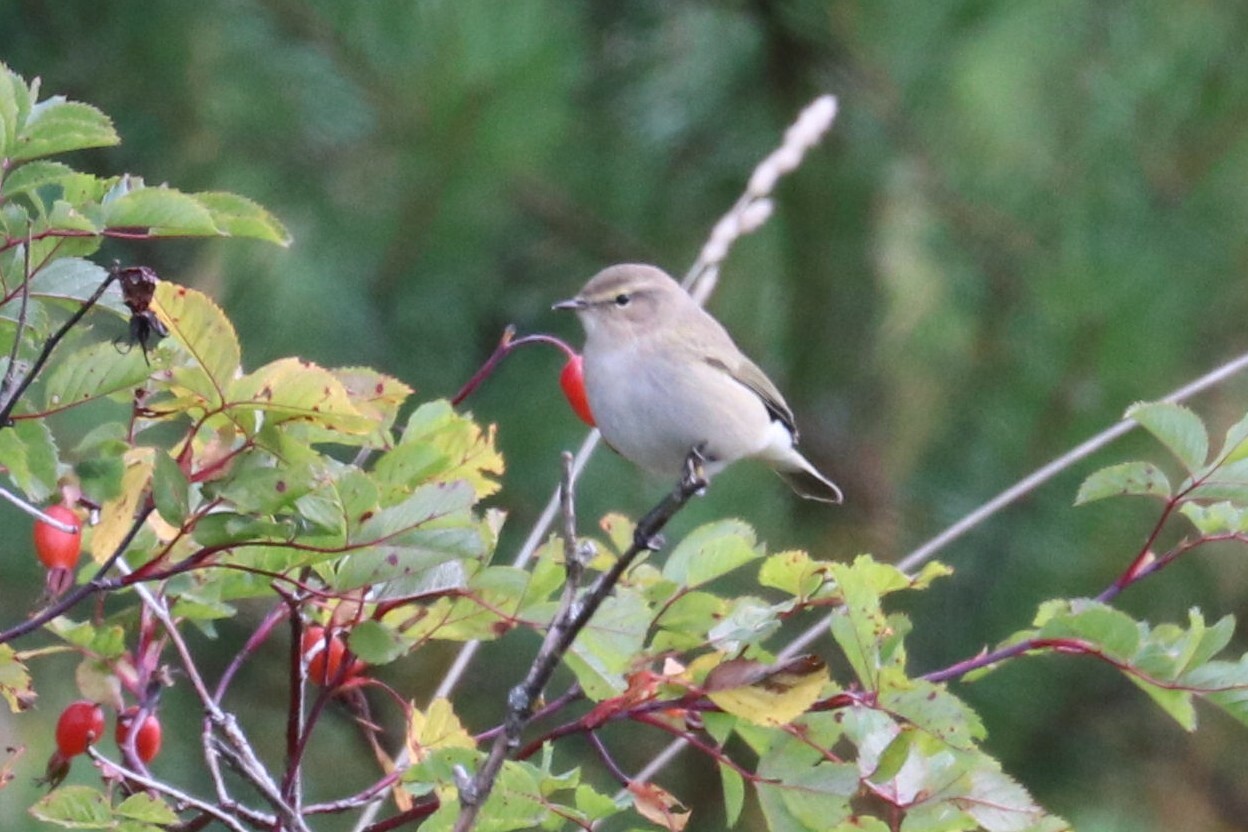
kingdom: Animalia
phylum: Chordata
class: Aves
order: Passeriformes
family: Phylloscopidae
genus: Phylloscopus
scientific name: Phylloscopus collybita
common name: Common chiffchaff
